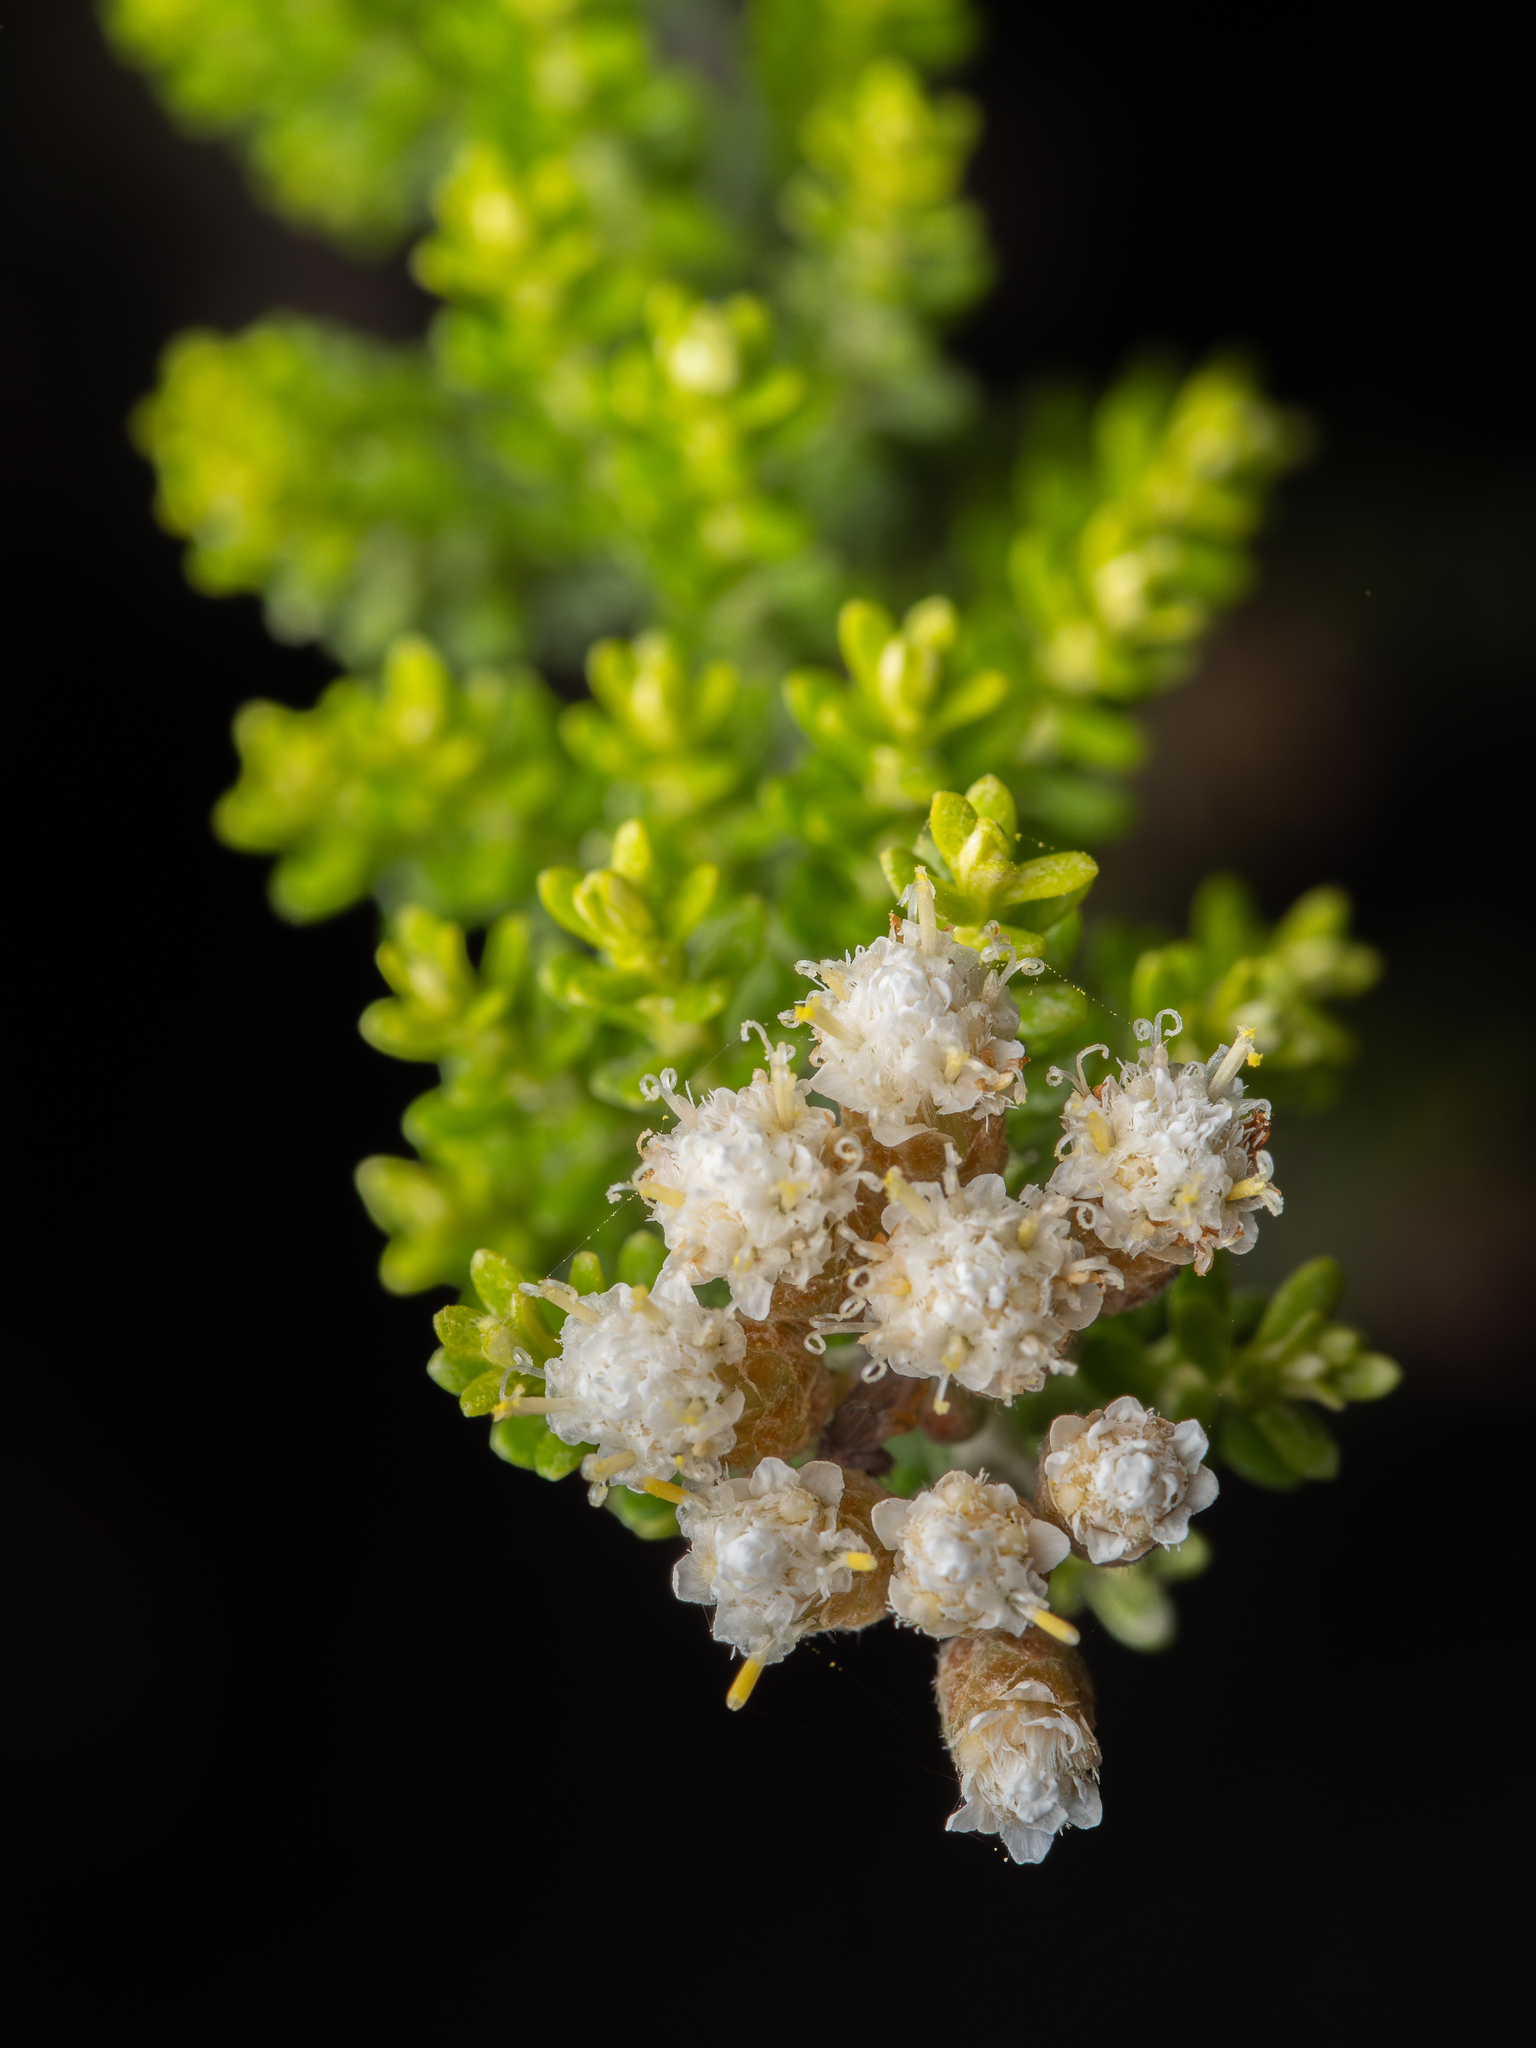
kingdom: Plantae
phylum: Tracheophyta
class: Magnoliopsida
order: Asterales
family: Asteraceae
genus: Ozothamnus
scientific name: Ozothamnus leptophyllus
